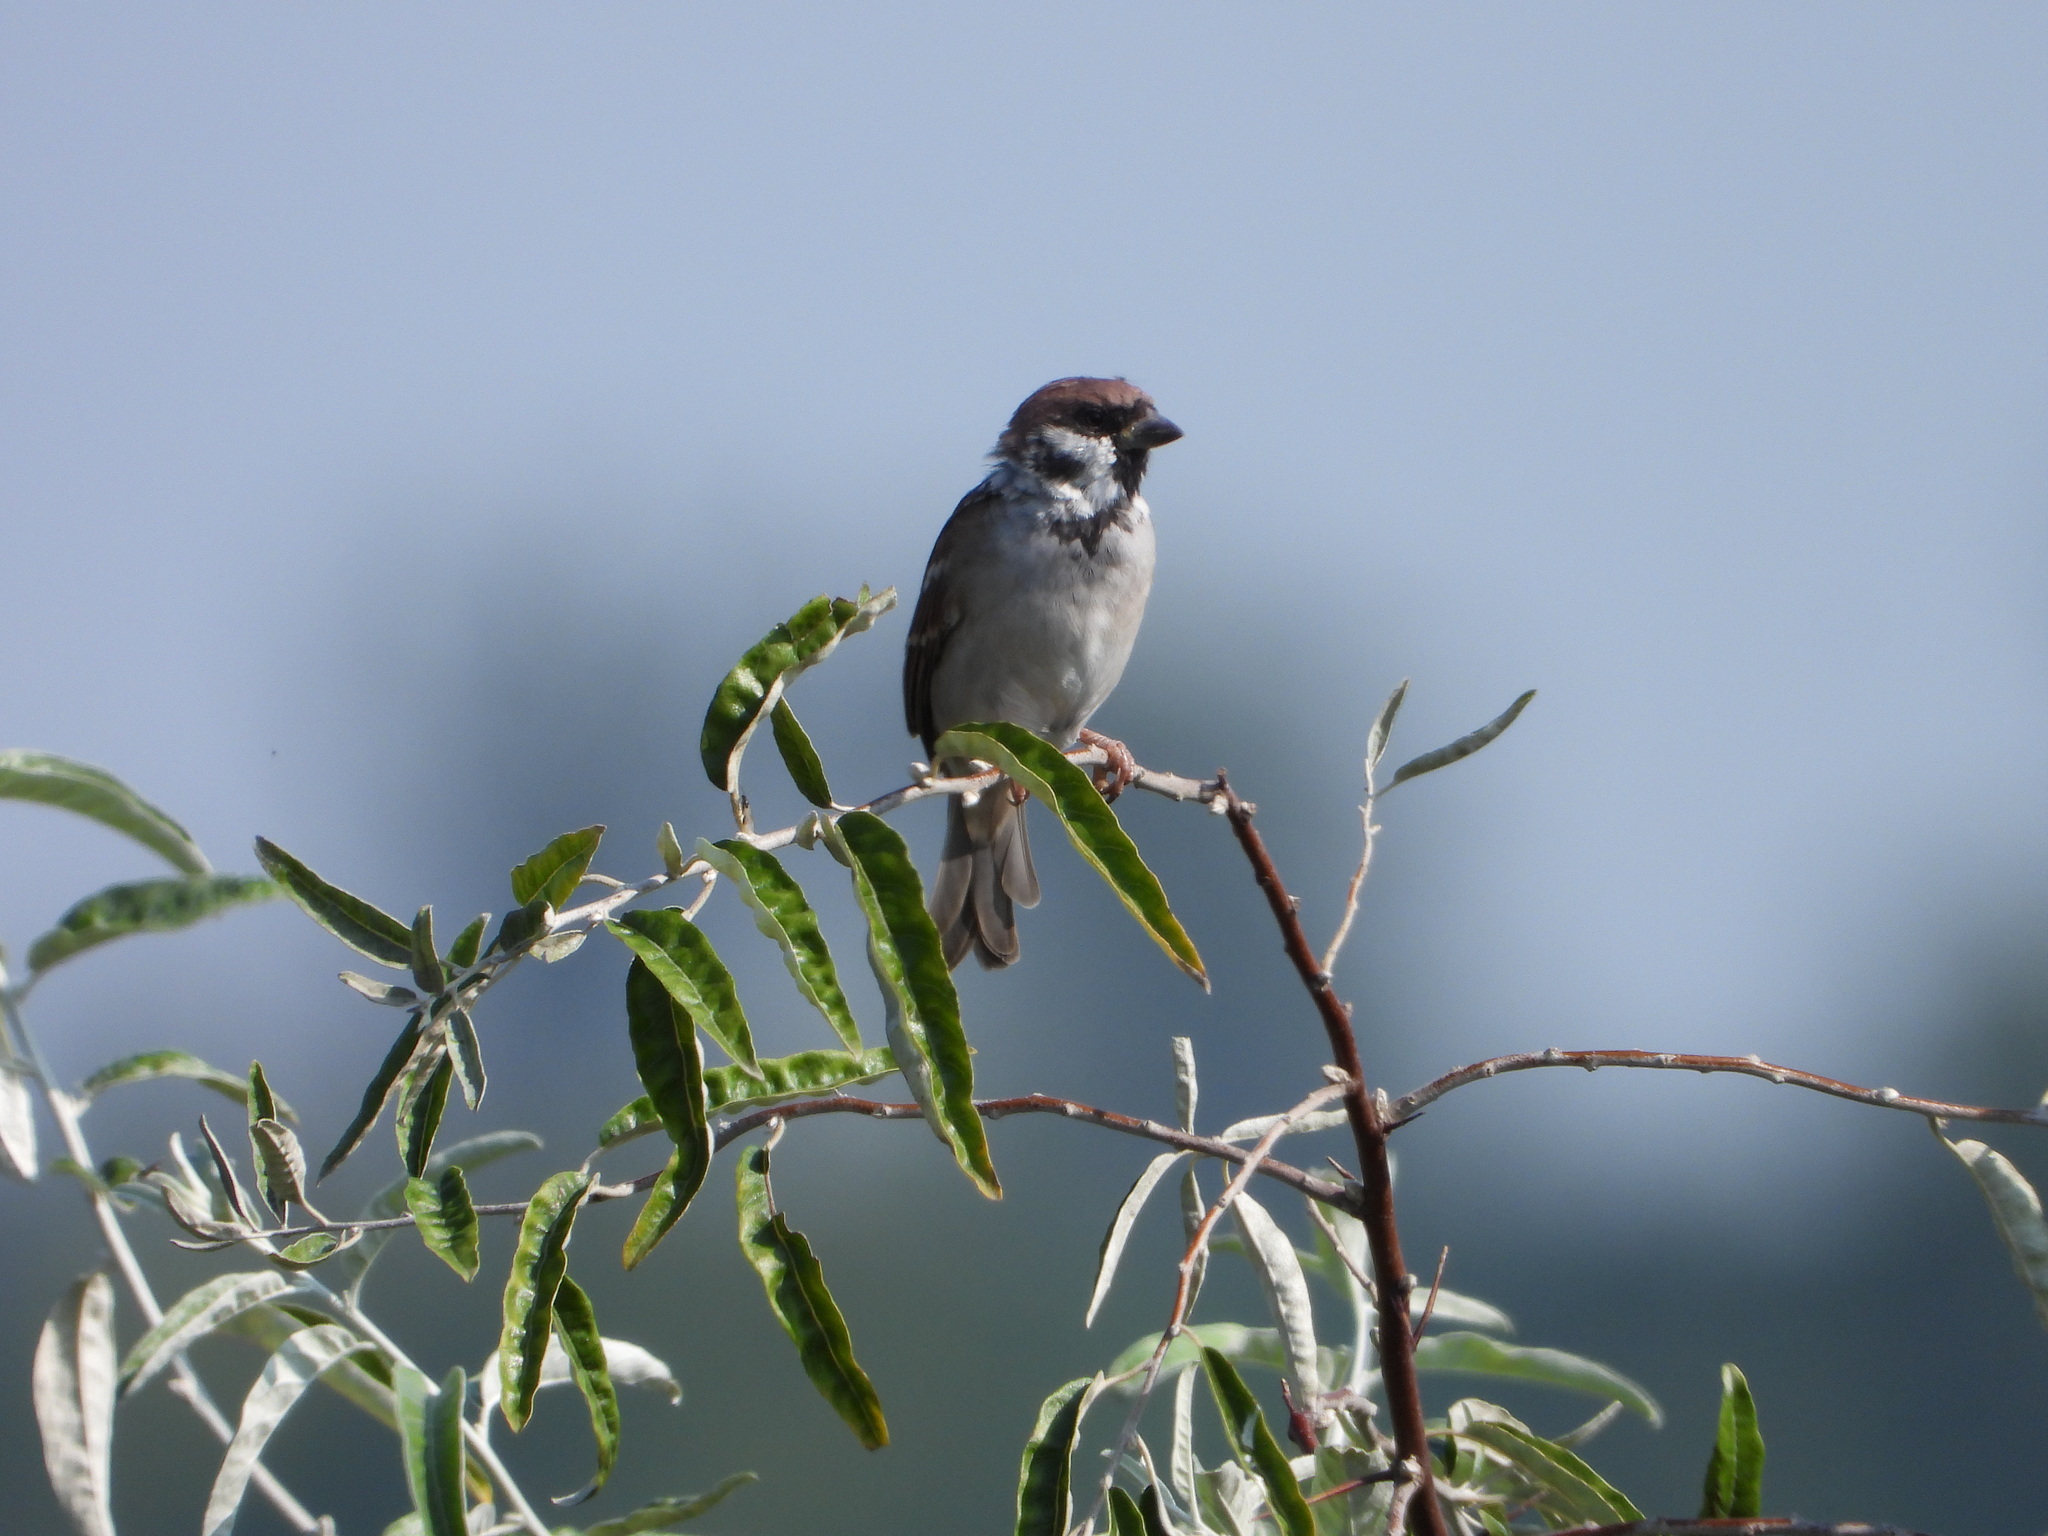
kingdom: Animalia
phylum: Chordata
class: Aves
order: Passeriformes
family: Passeridae
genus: Passer
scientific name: Passer montanus
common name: Eurasian tree sparrow
